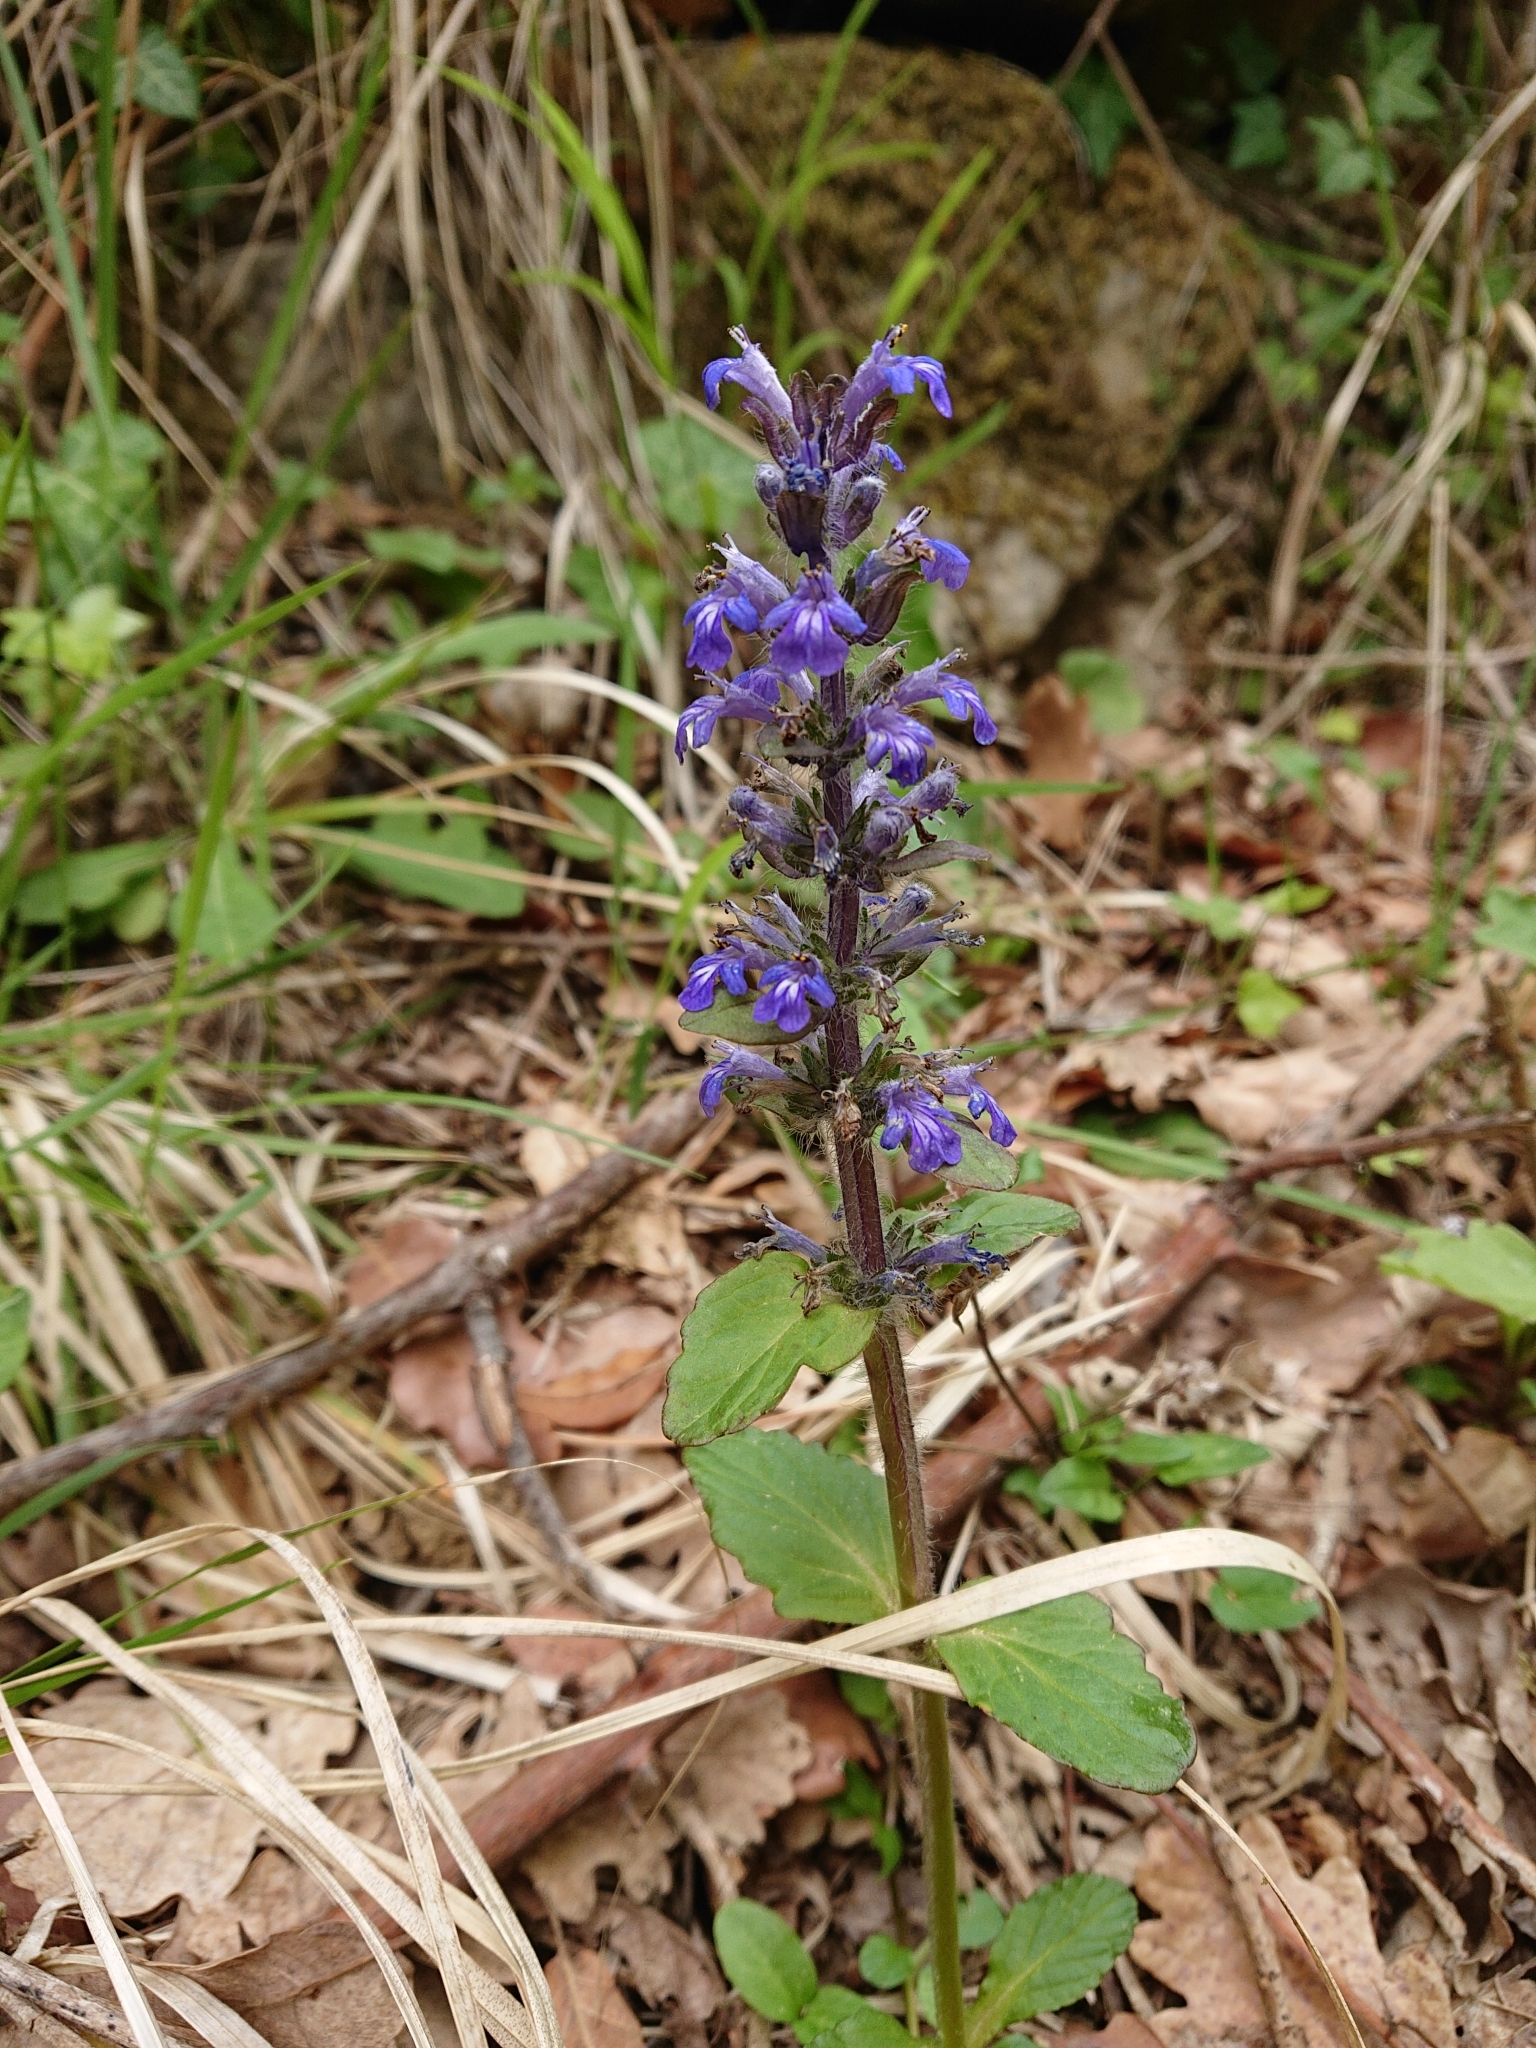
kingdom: Plantae
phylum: Tracheophyta
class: Magnoliopsida
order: Lamiales
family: Lamiaceae
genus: Ajuga
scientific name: Ajuga reptans
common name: Bugle
